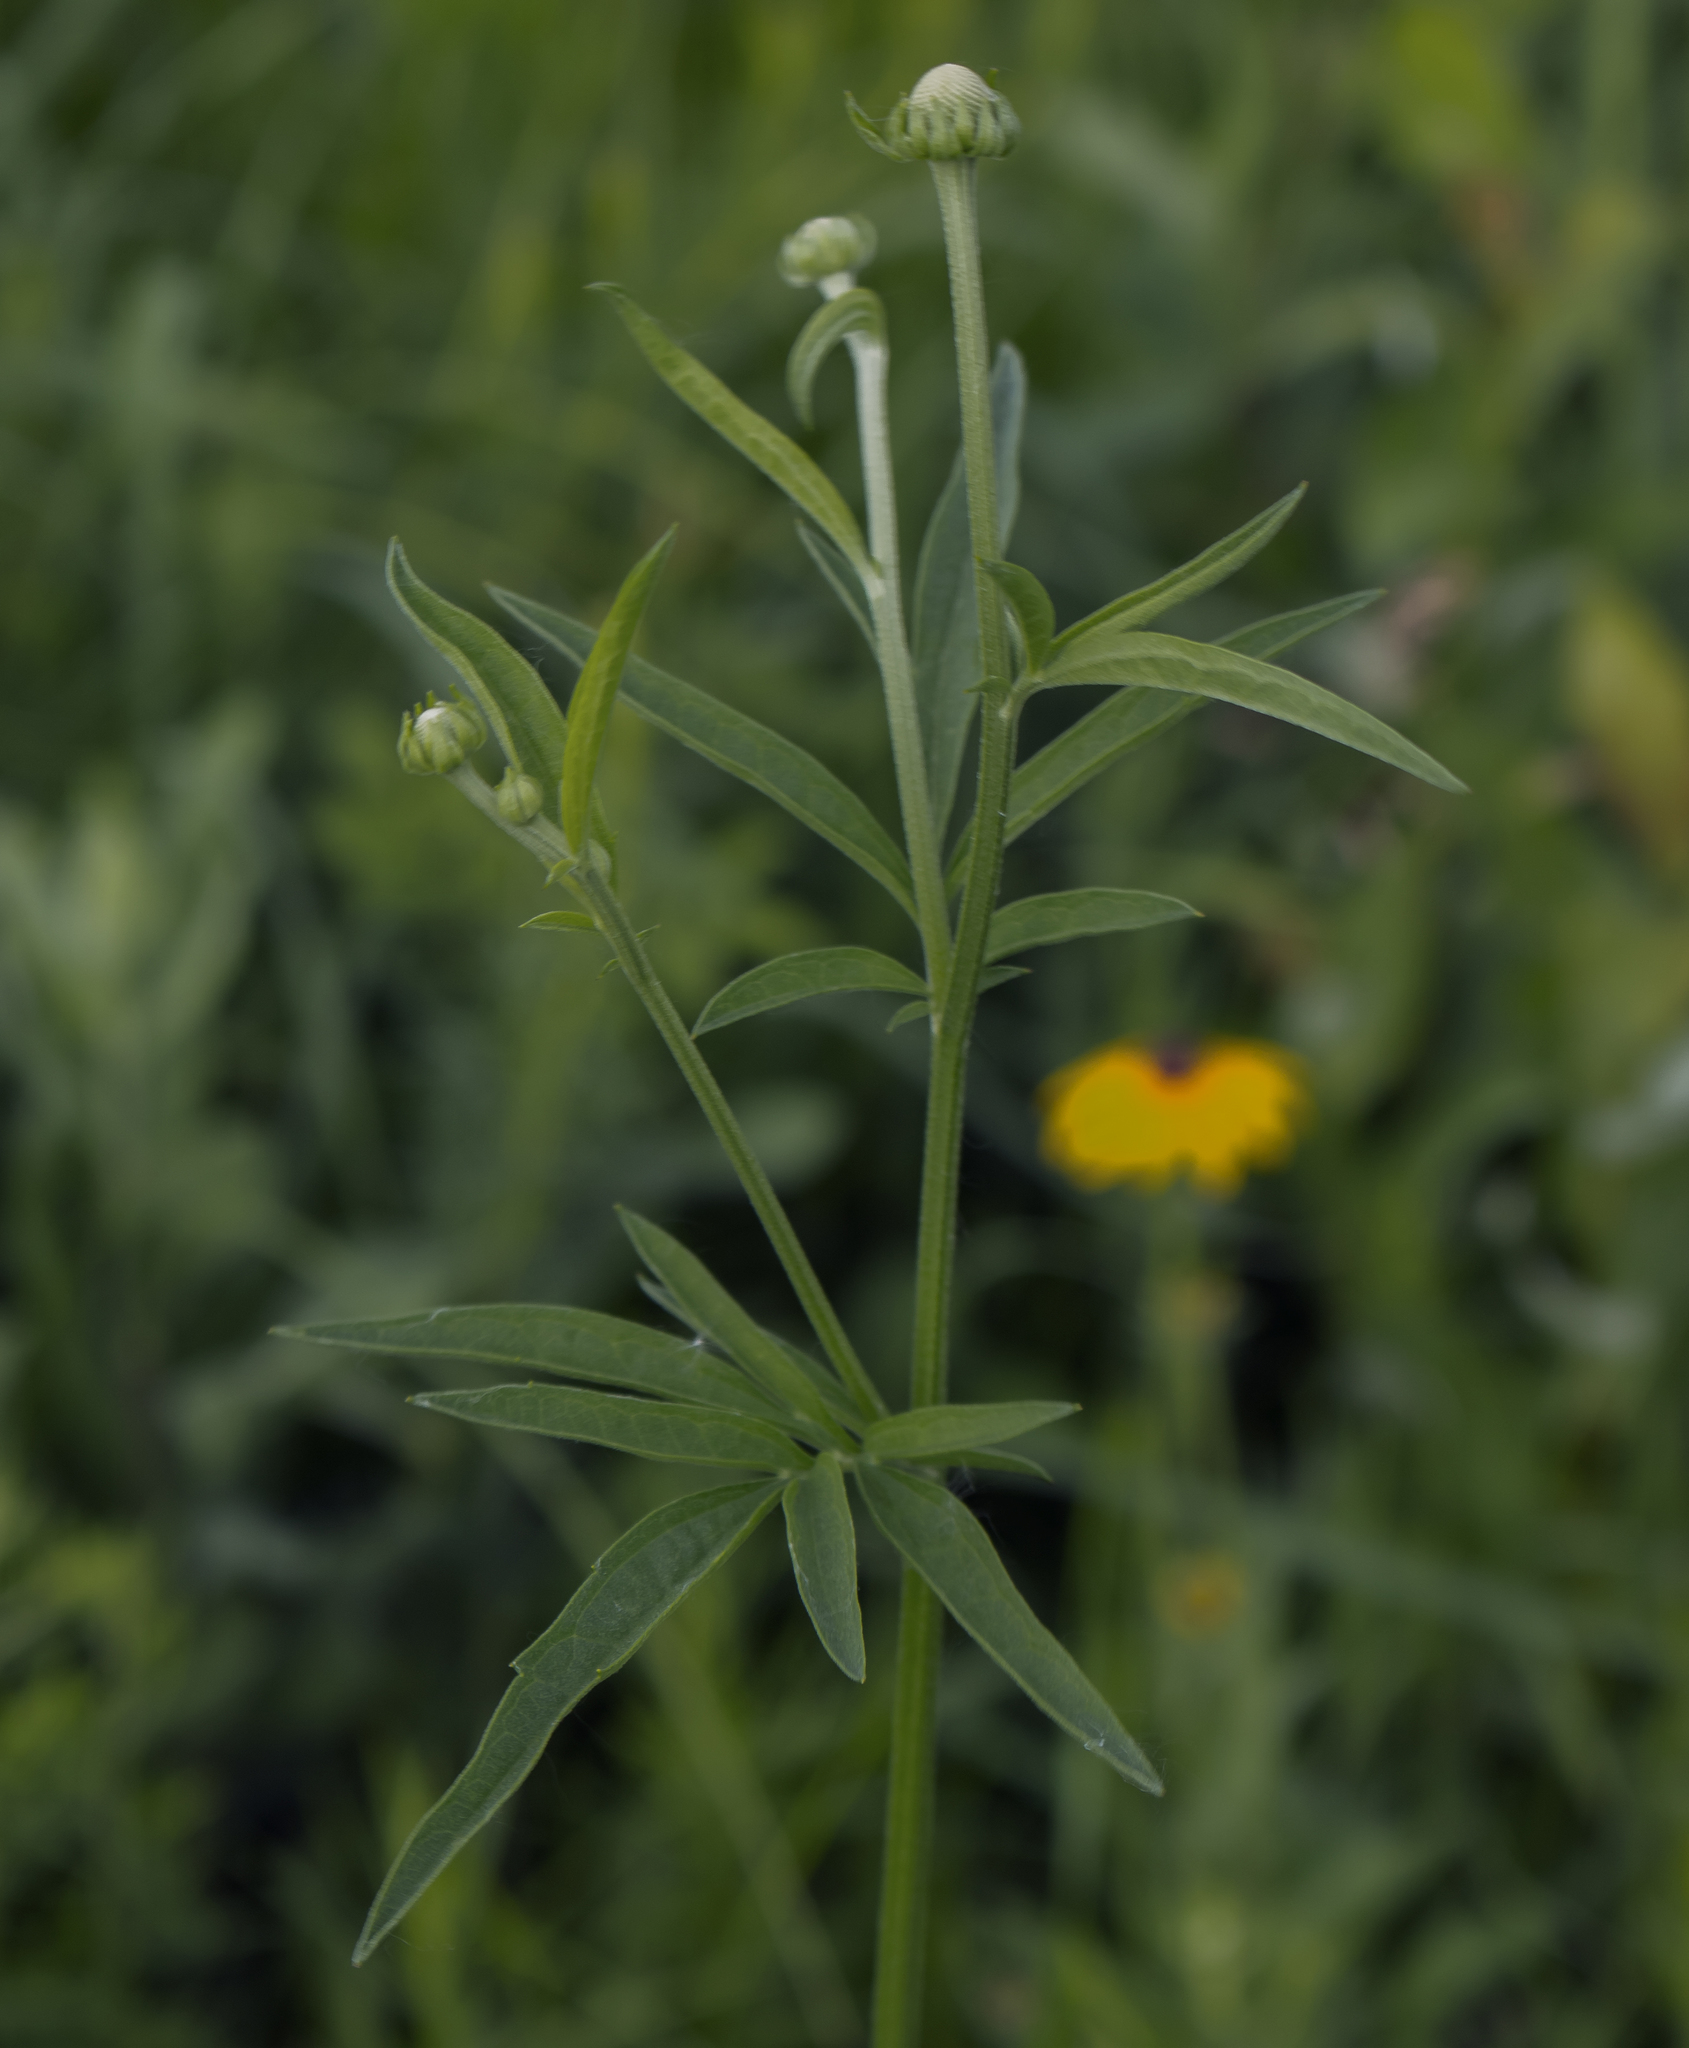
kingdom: Plantae
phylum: Tracheophyta
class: Magnoliopsida
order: Asterales
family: Asteraceae
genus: Ratibida
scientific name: Ratibida pinnata
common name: Drooping prairie-coneflower
